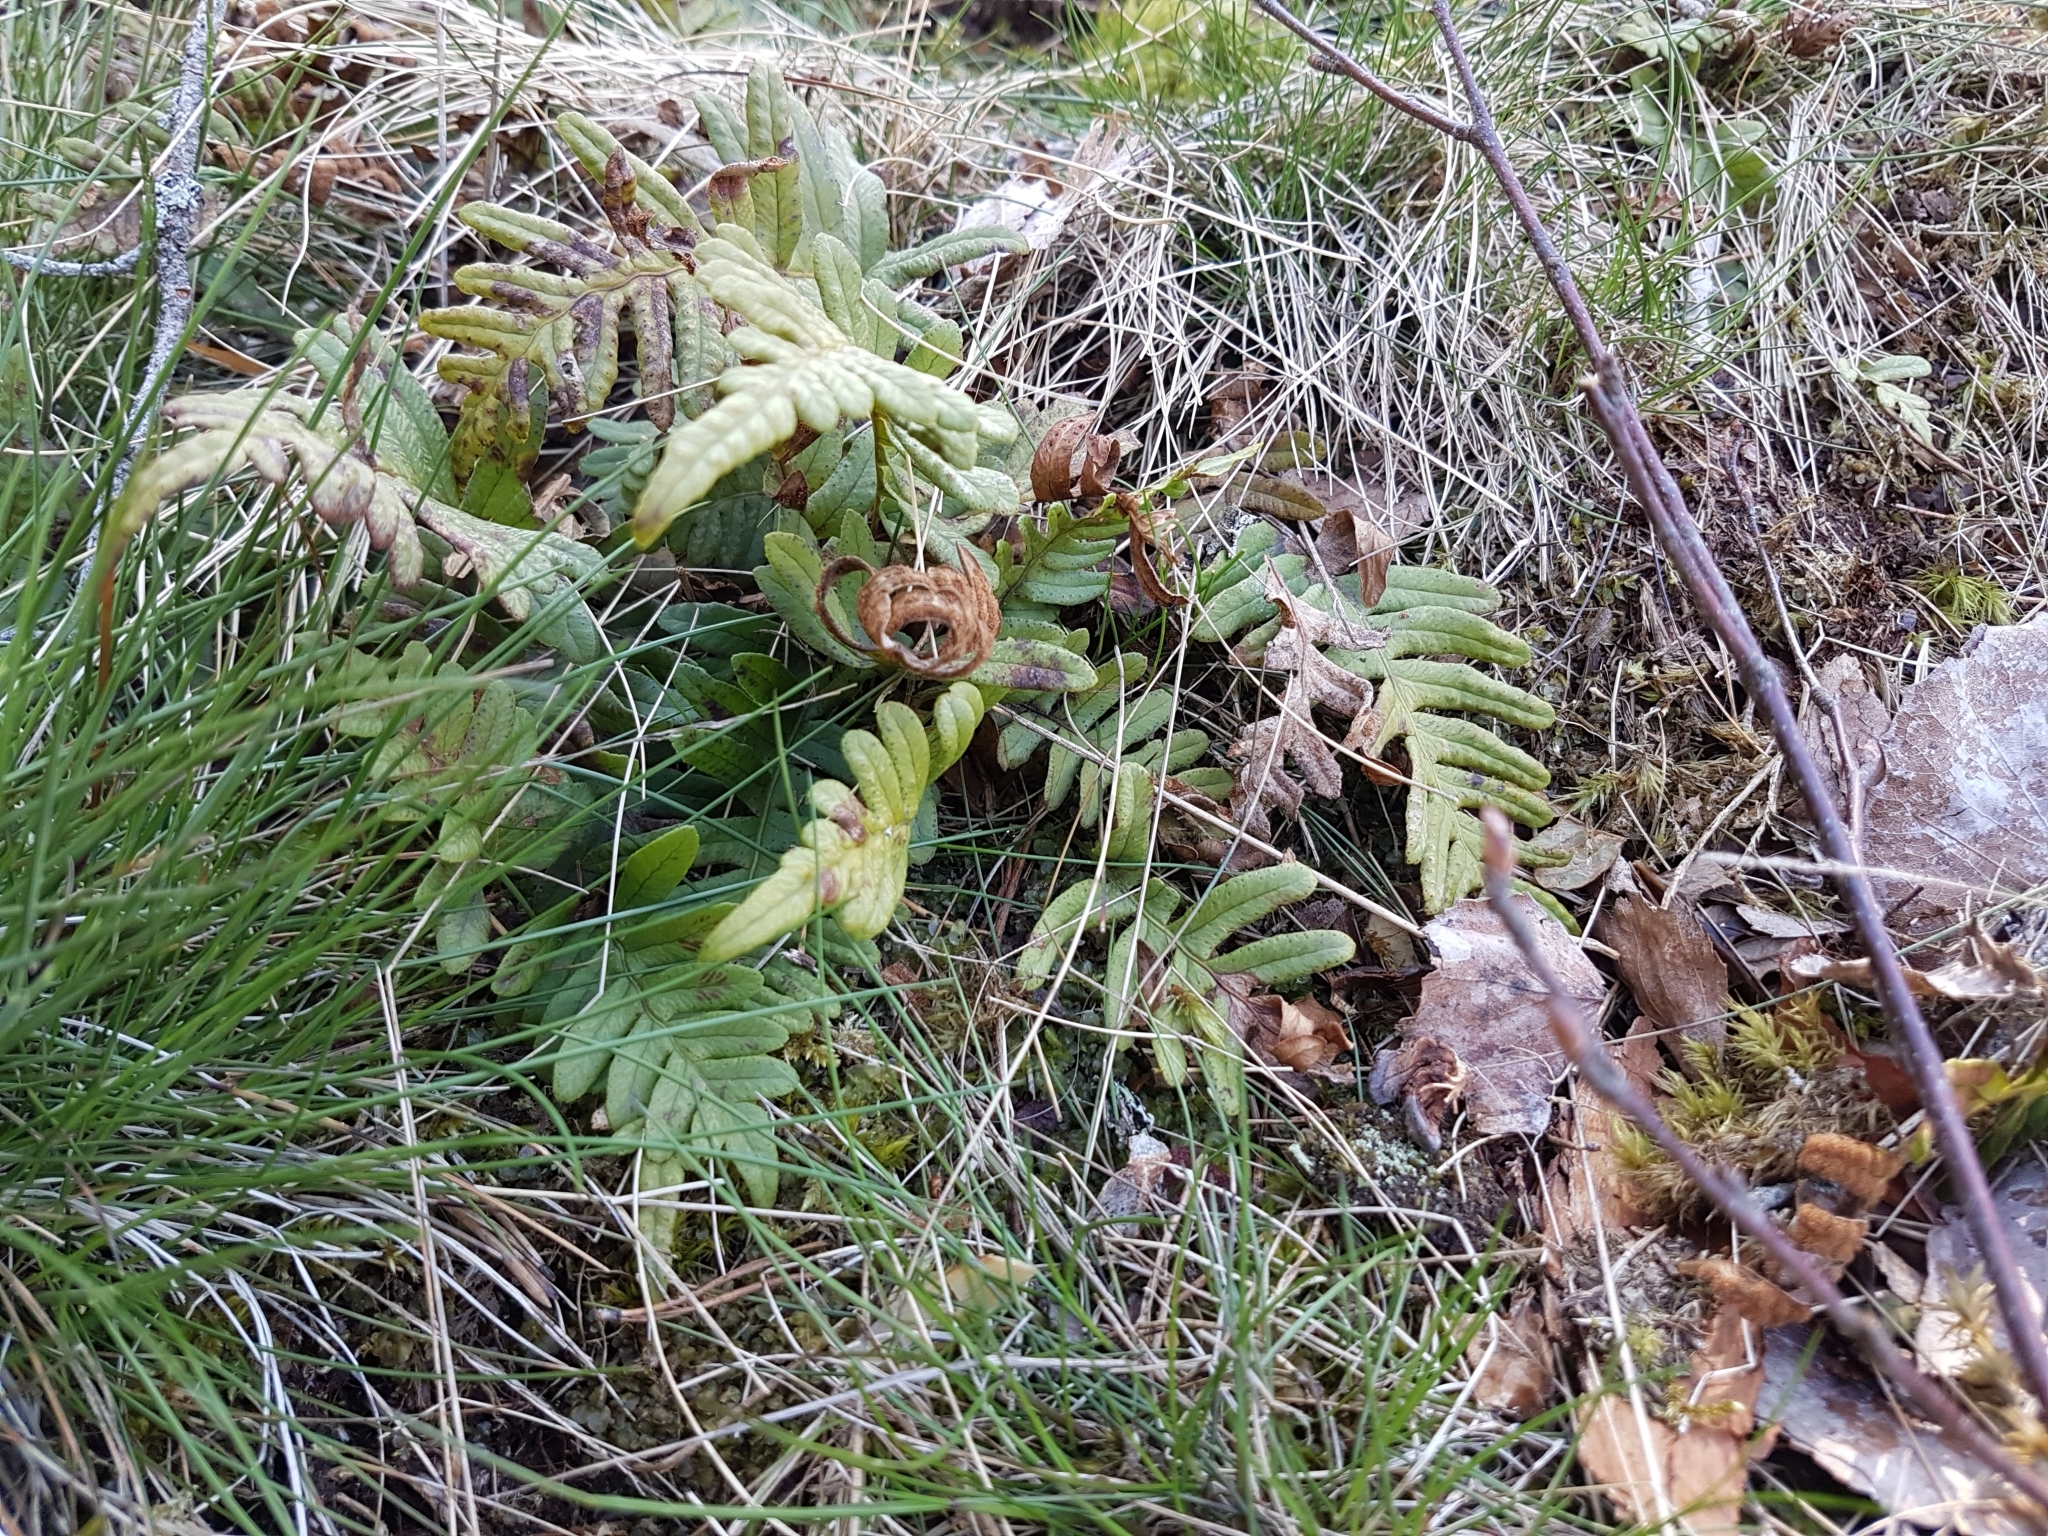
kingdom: Plantae
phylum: Tracheophyta
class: Polypodiopsida
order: Polypodiales
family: Polypodiaceae
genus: Polypodium
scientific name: Polypodium vulgare
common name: Common polypody
